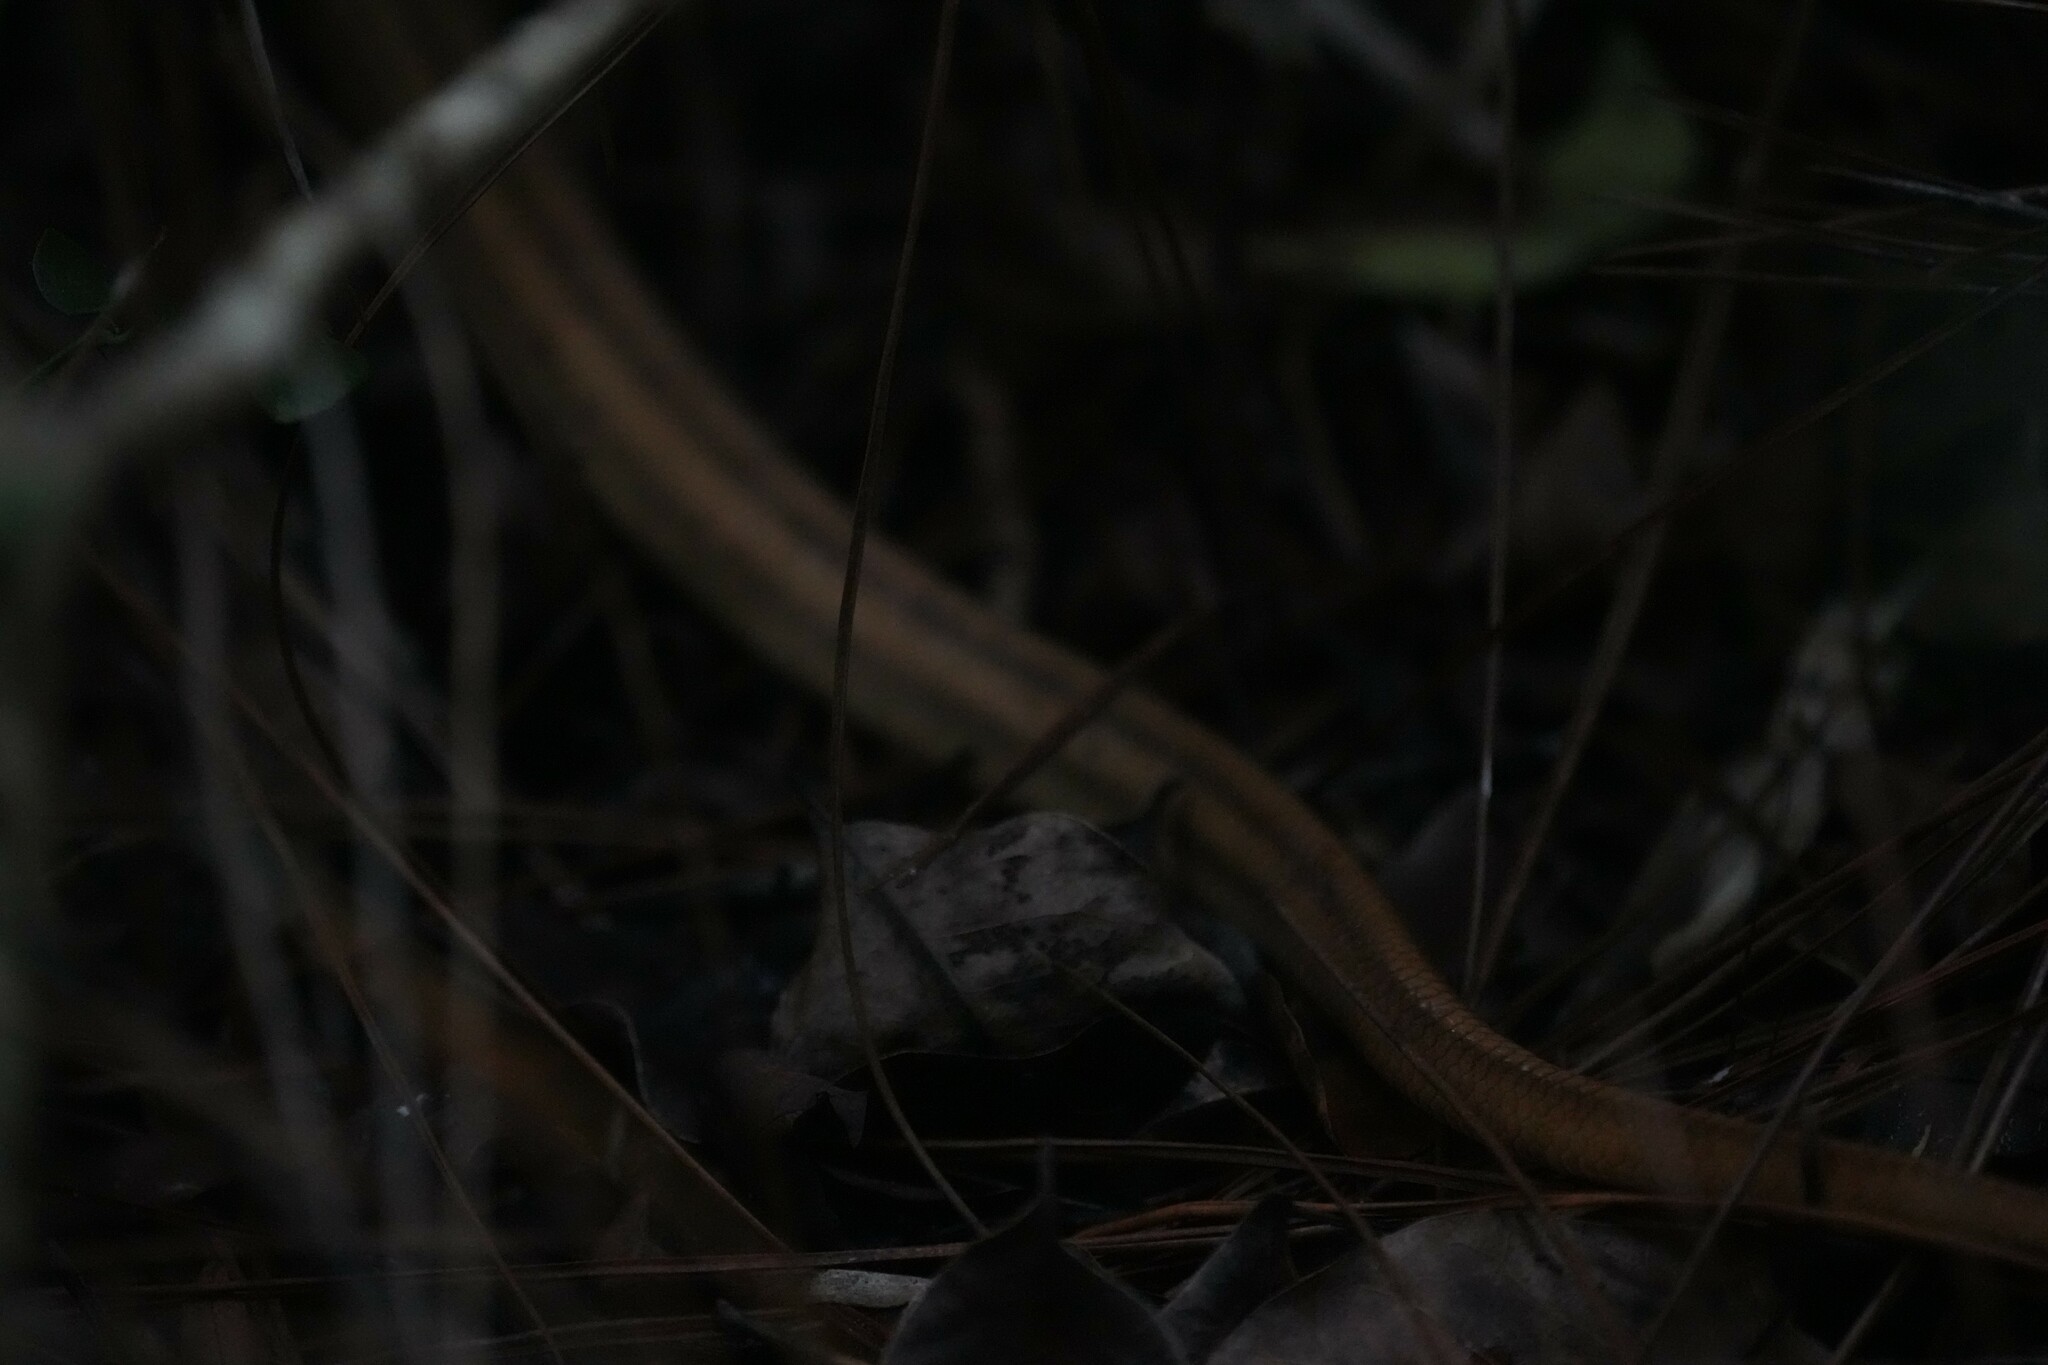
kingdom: Animalia
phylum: Chordata
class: Squamata
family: Colubridae
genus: Pantherophis
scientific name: Pantherophis alleghaniensis
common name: Eastern rat snake
